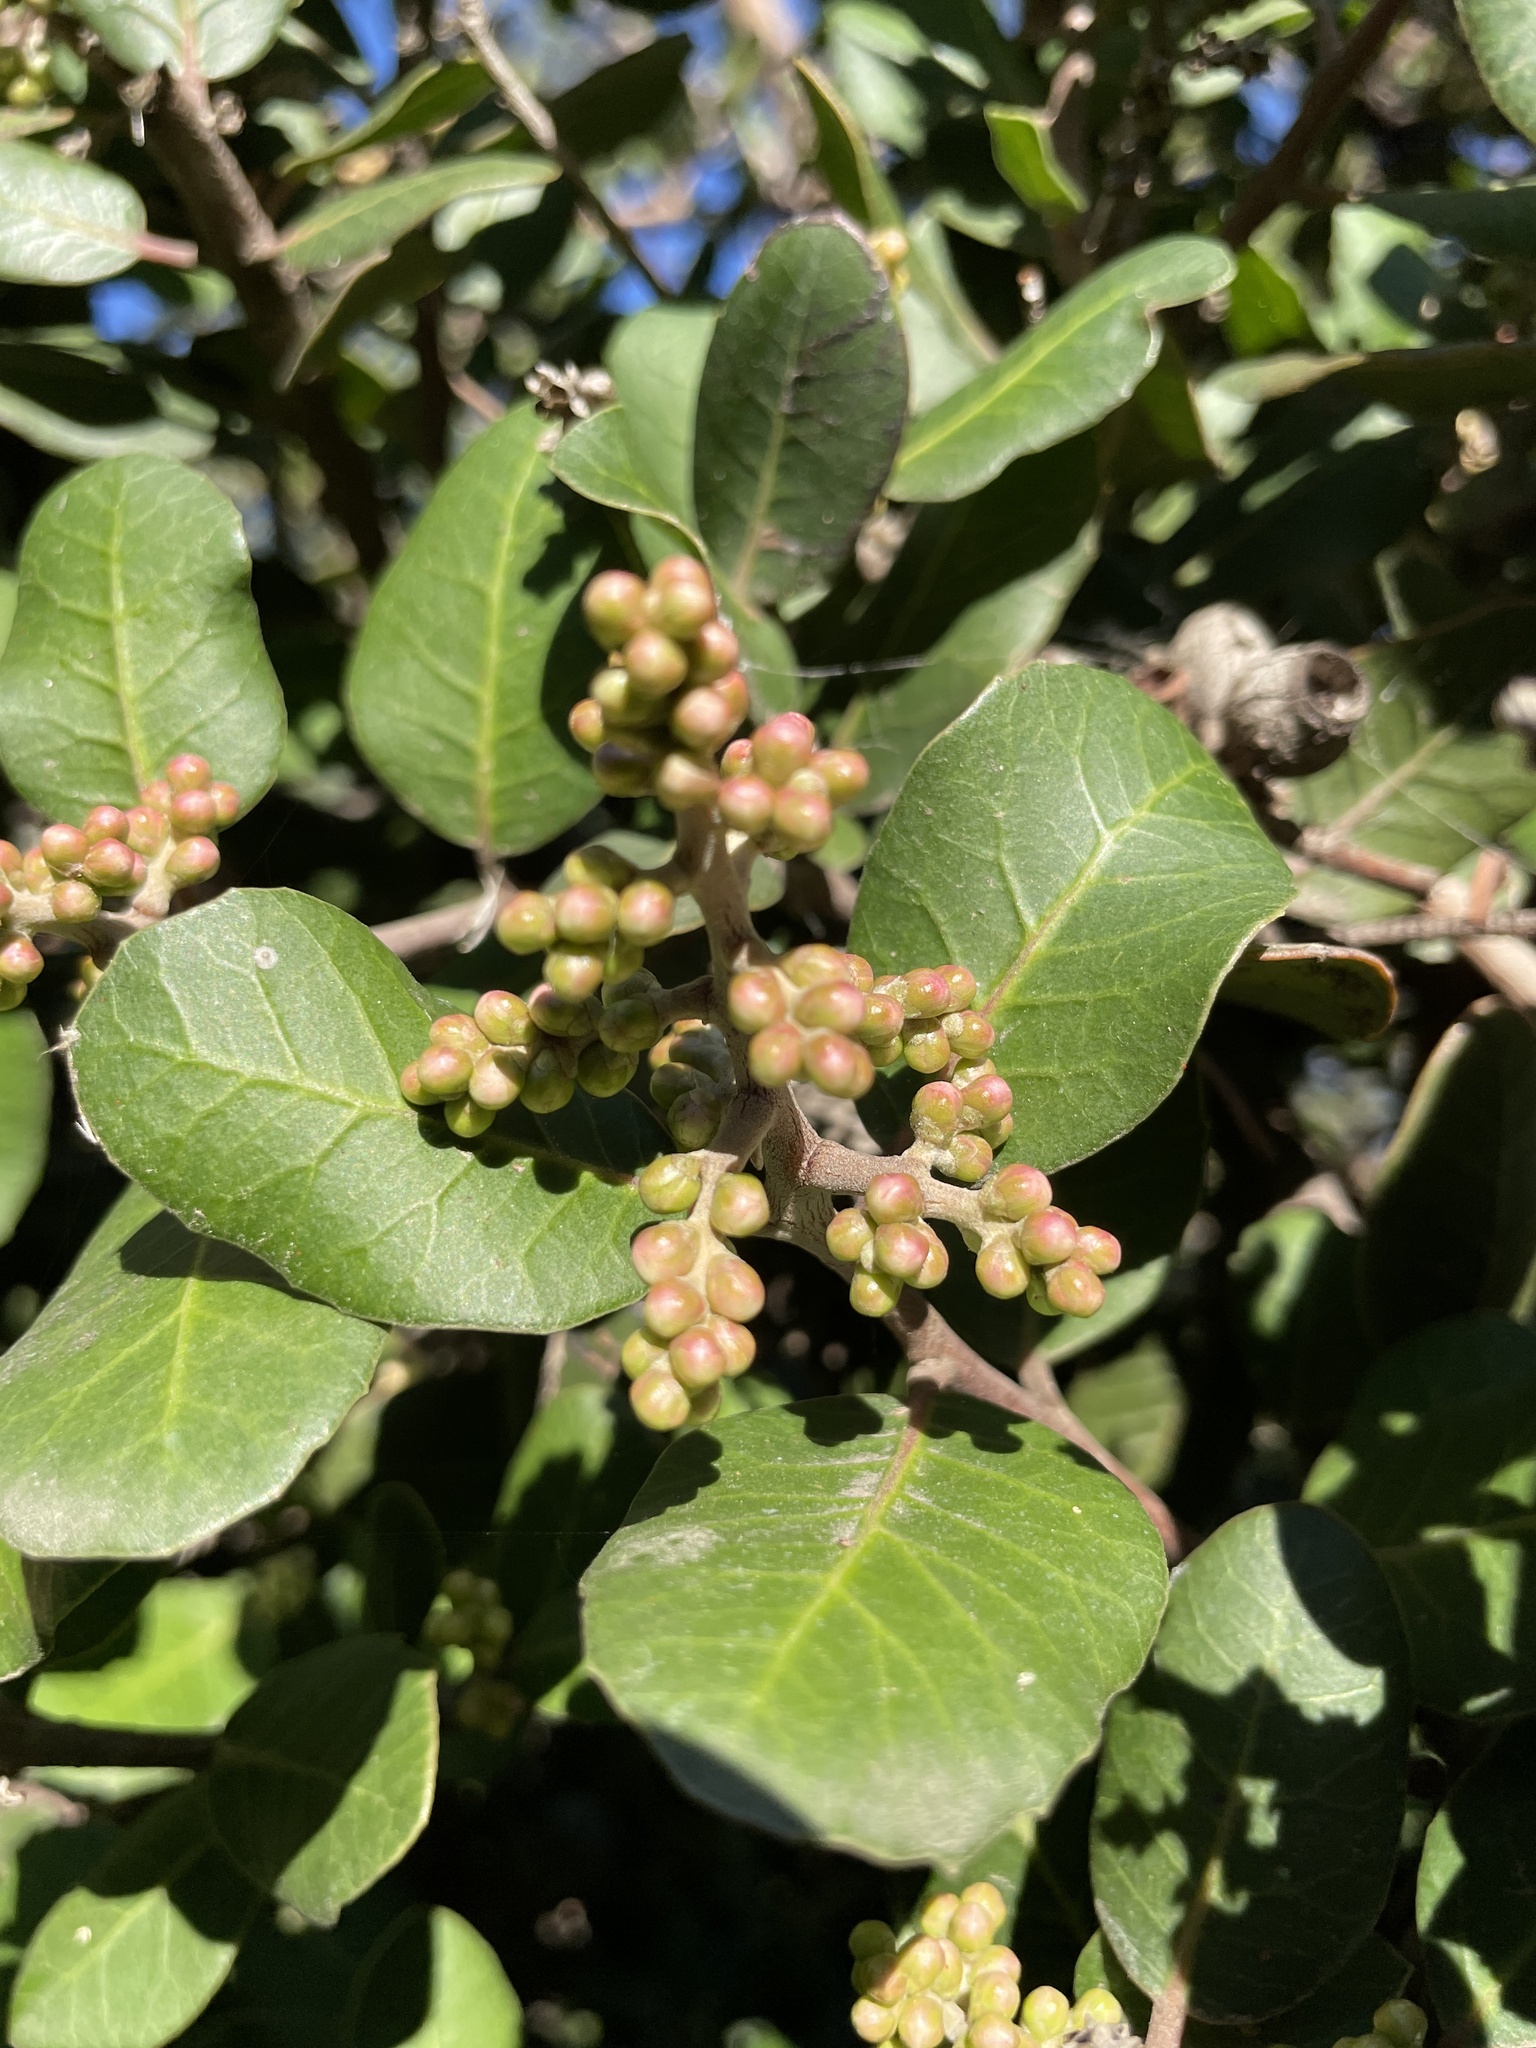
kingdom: Plantae
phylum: Tracheophyta
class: Magnoliopsida
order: Sapindales
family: Anacardiaceae
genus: Rhus
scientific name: Rhus integrifolia
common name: Lemonade sumac
